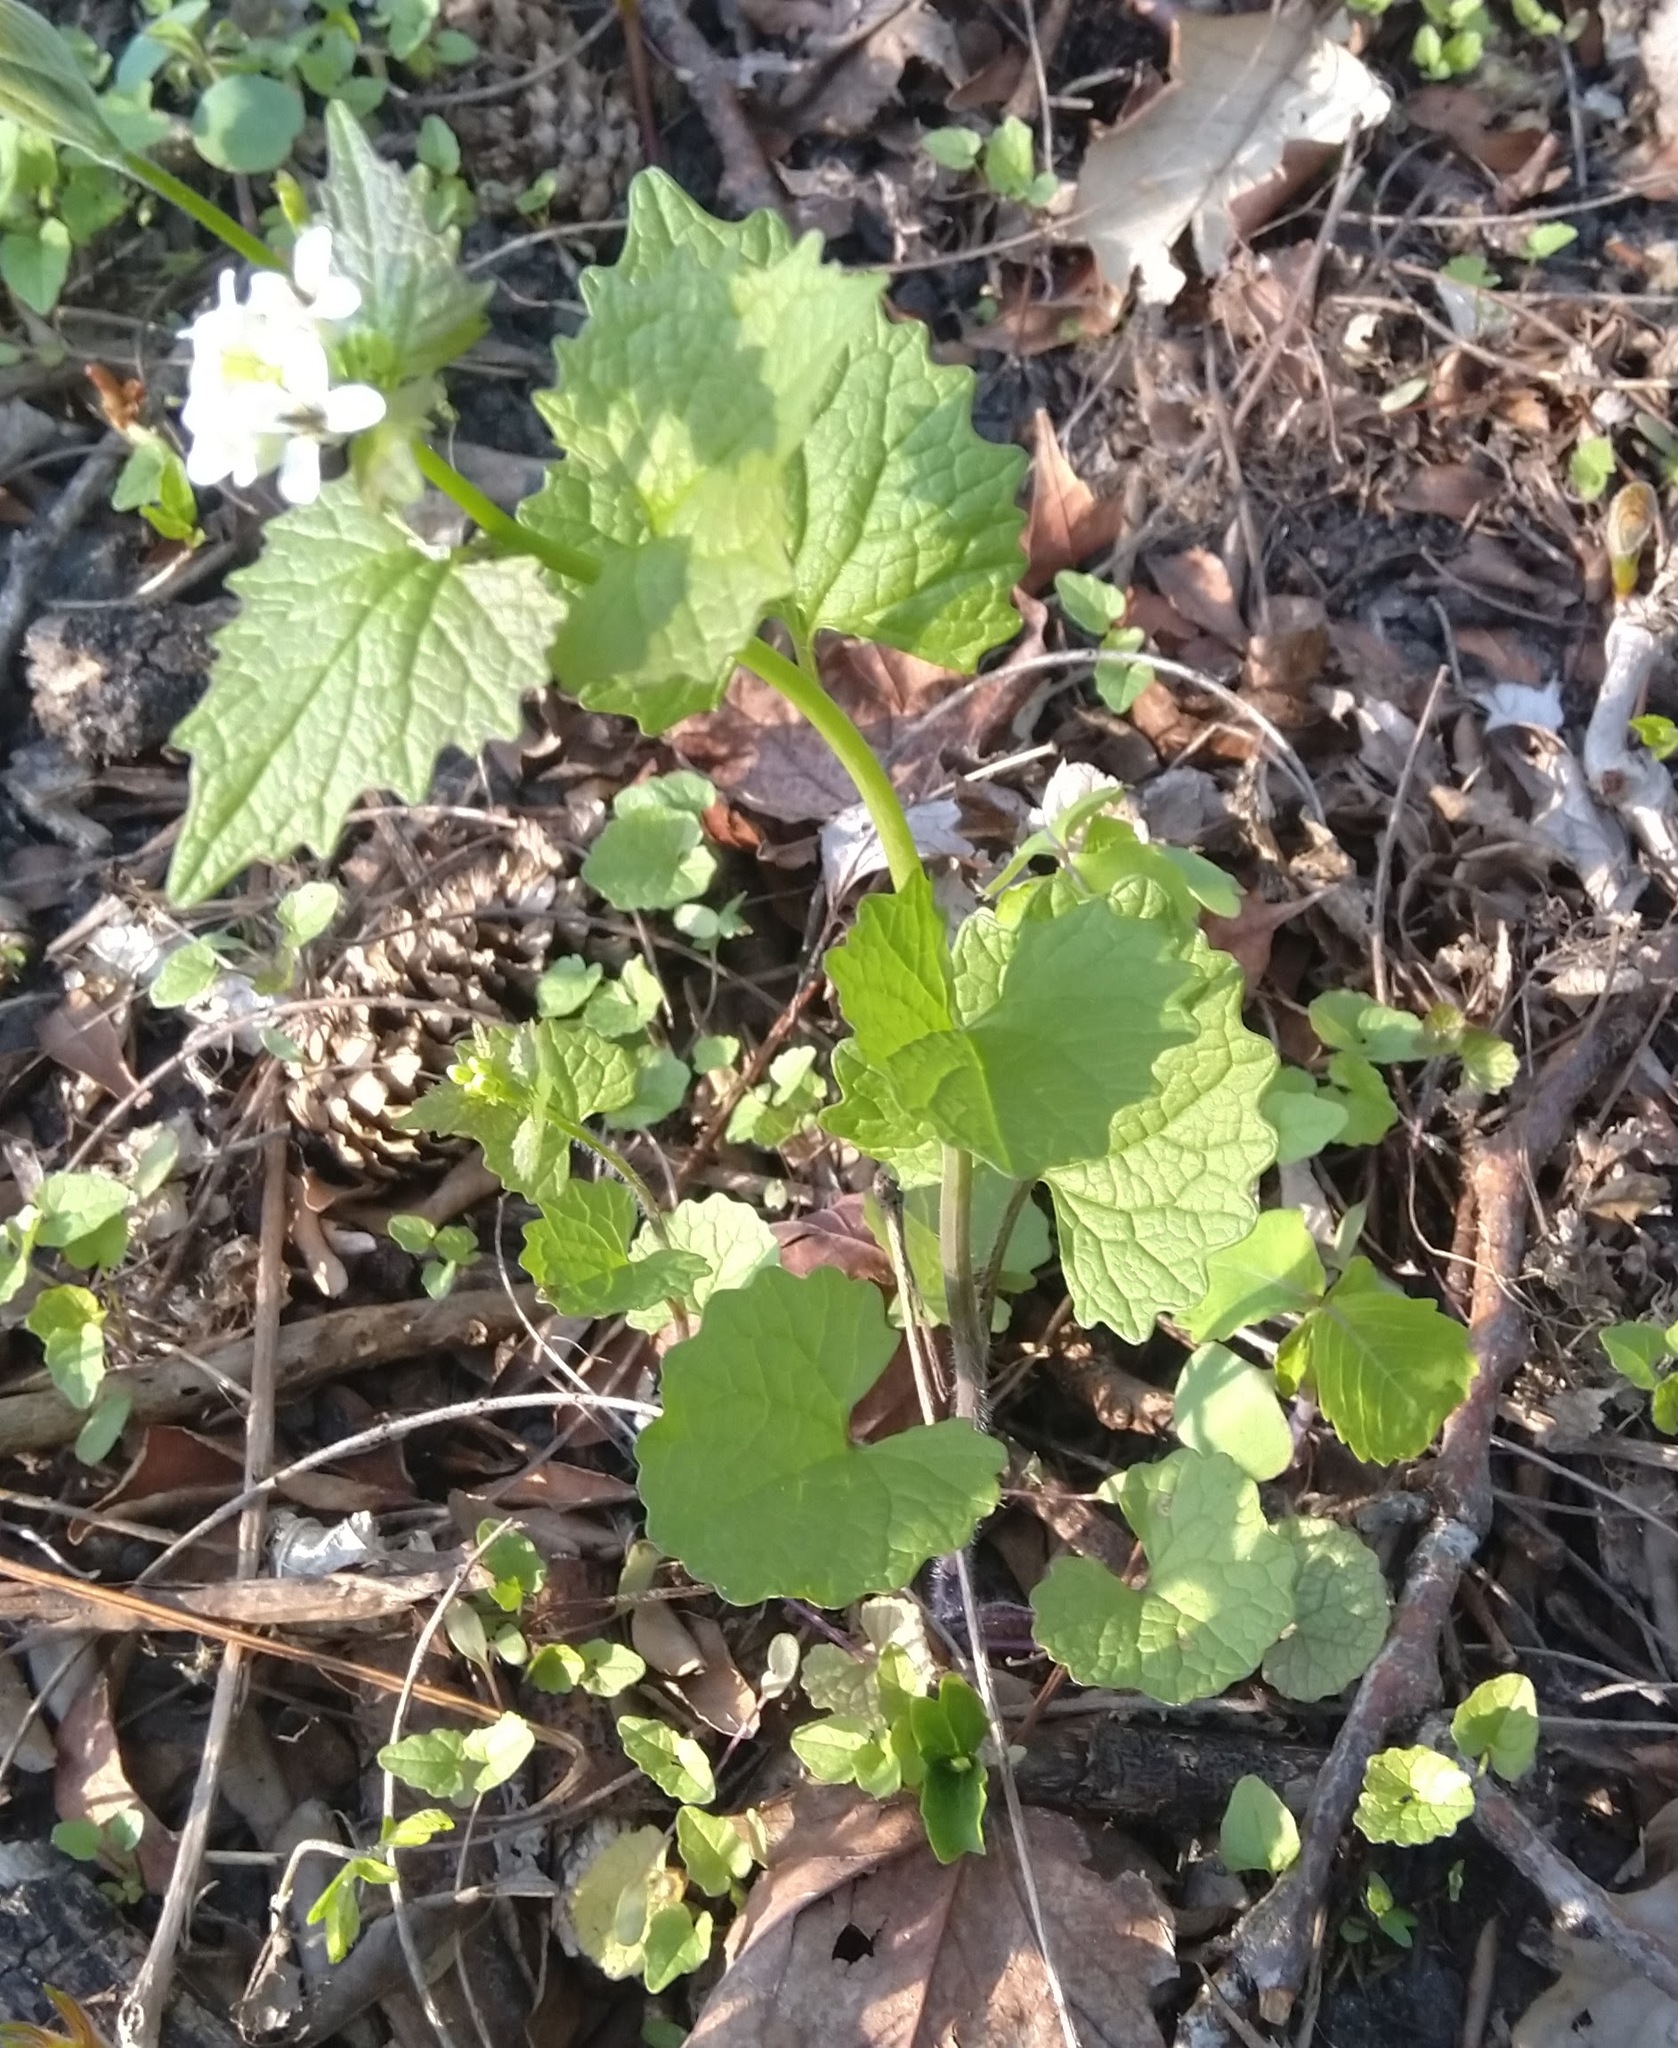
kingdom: Plantae
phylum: Tracheophyta
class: Magnoliopsida
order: Brassicales
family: Brassicaceae
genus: Alliaria
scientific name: Alliaria petiolata
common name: Garlic mustard
